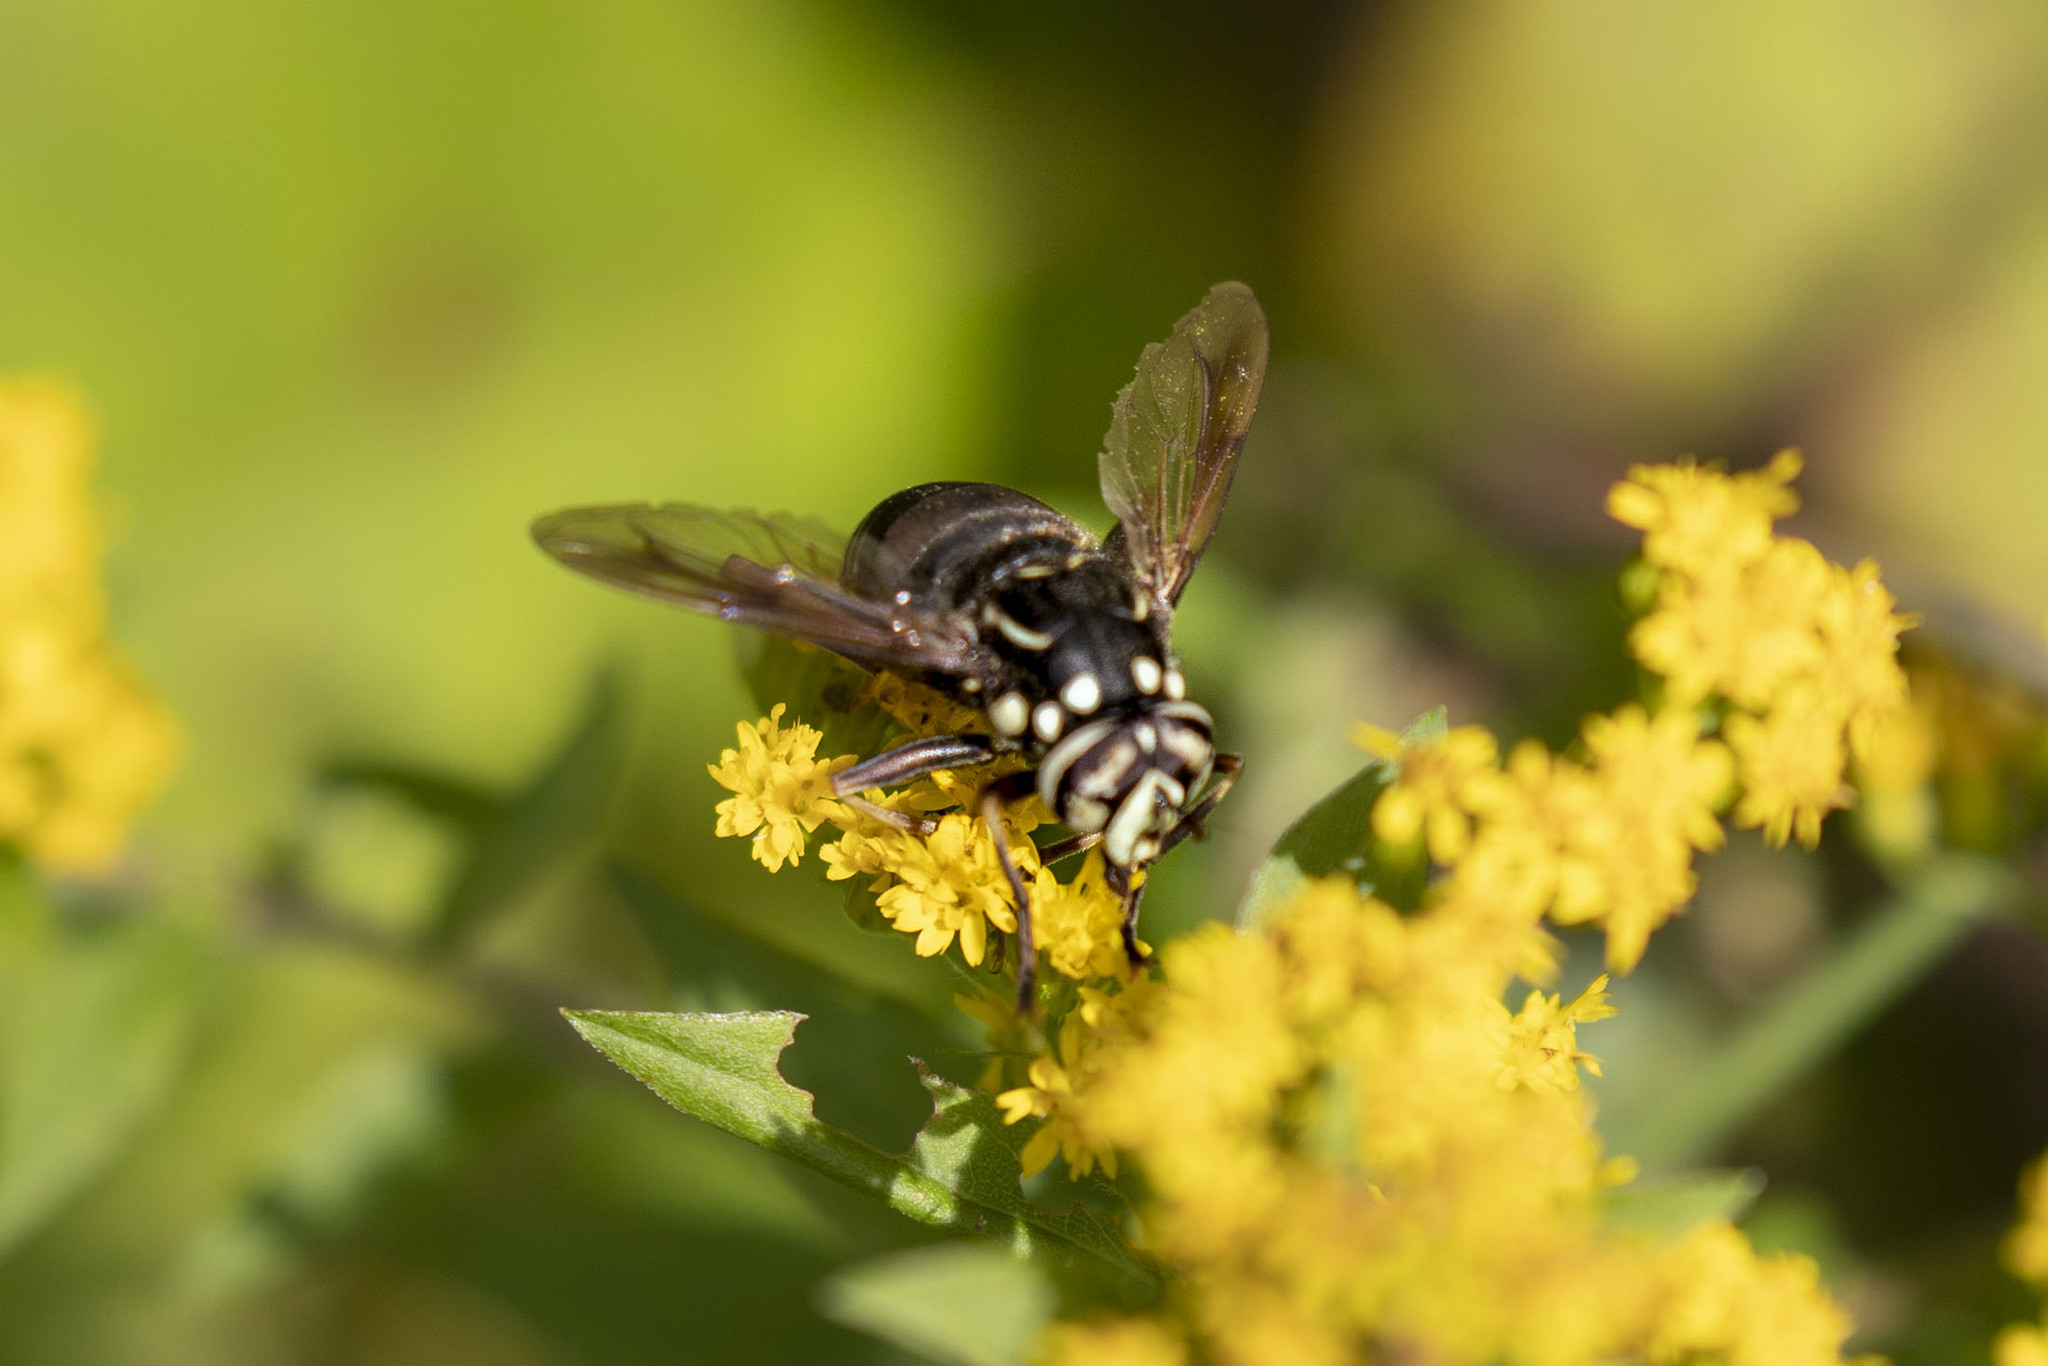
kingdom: Animalia
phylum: Arthropoda
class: Insecta
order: Diptera
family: Syrphidae
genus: Spilomyia
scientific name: Spilomyia fusca
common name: Bald-faced hornet fly
